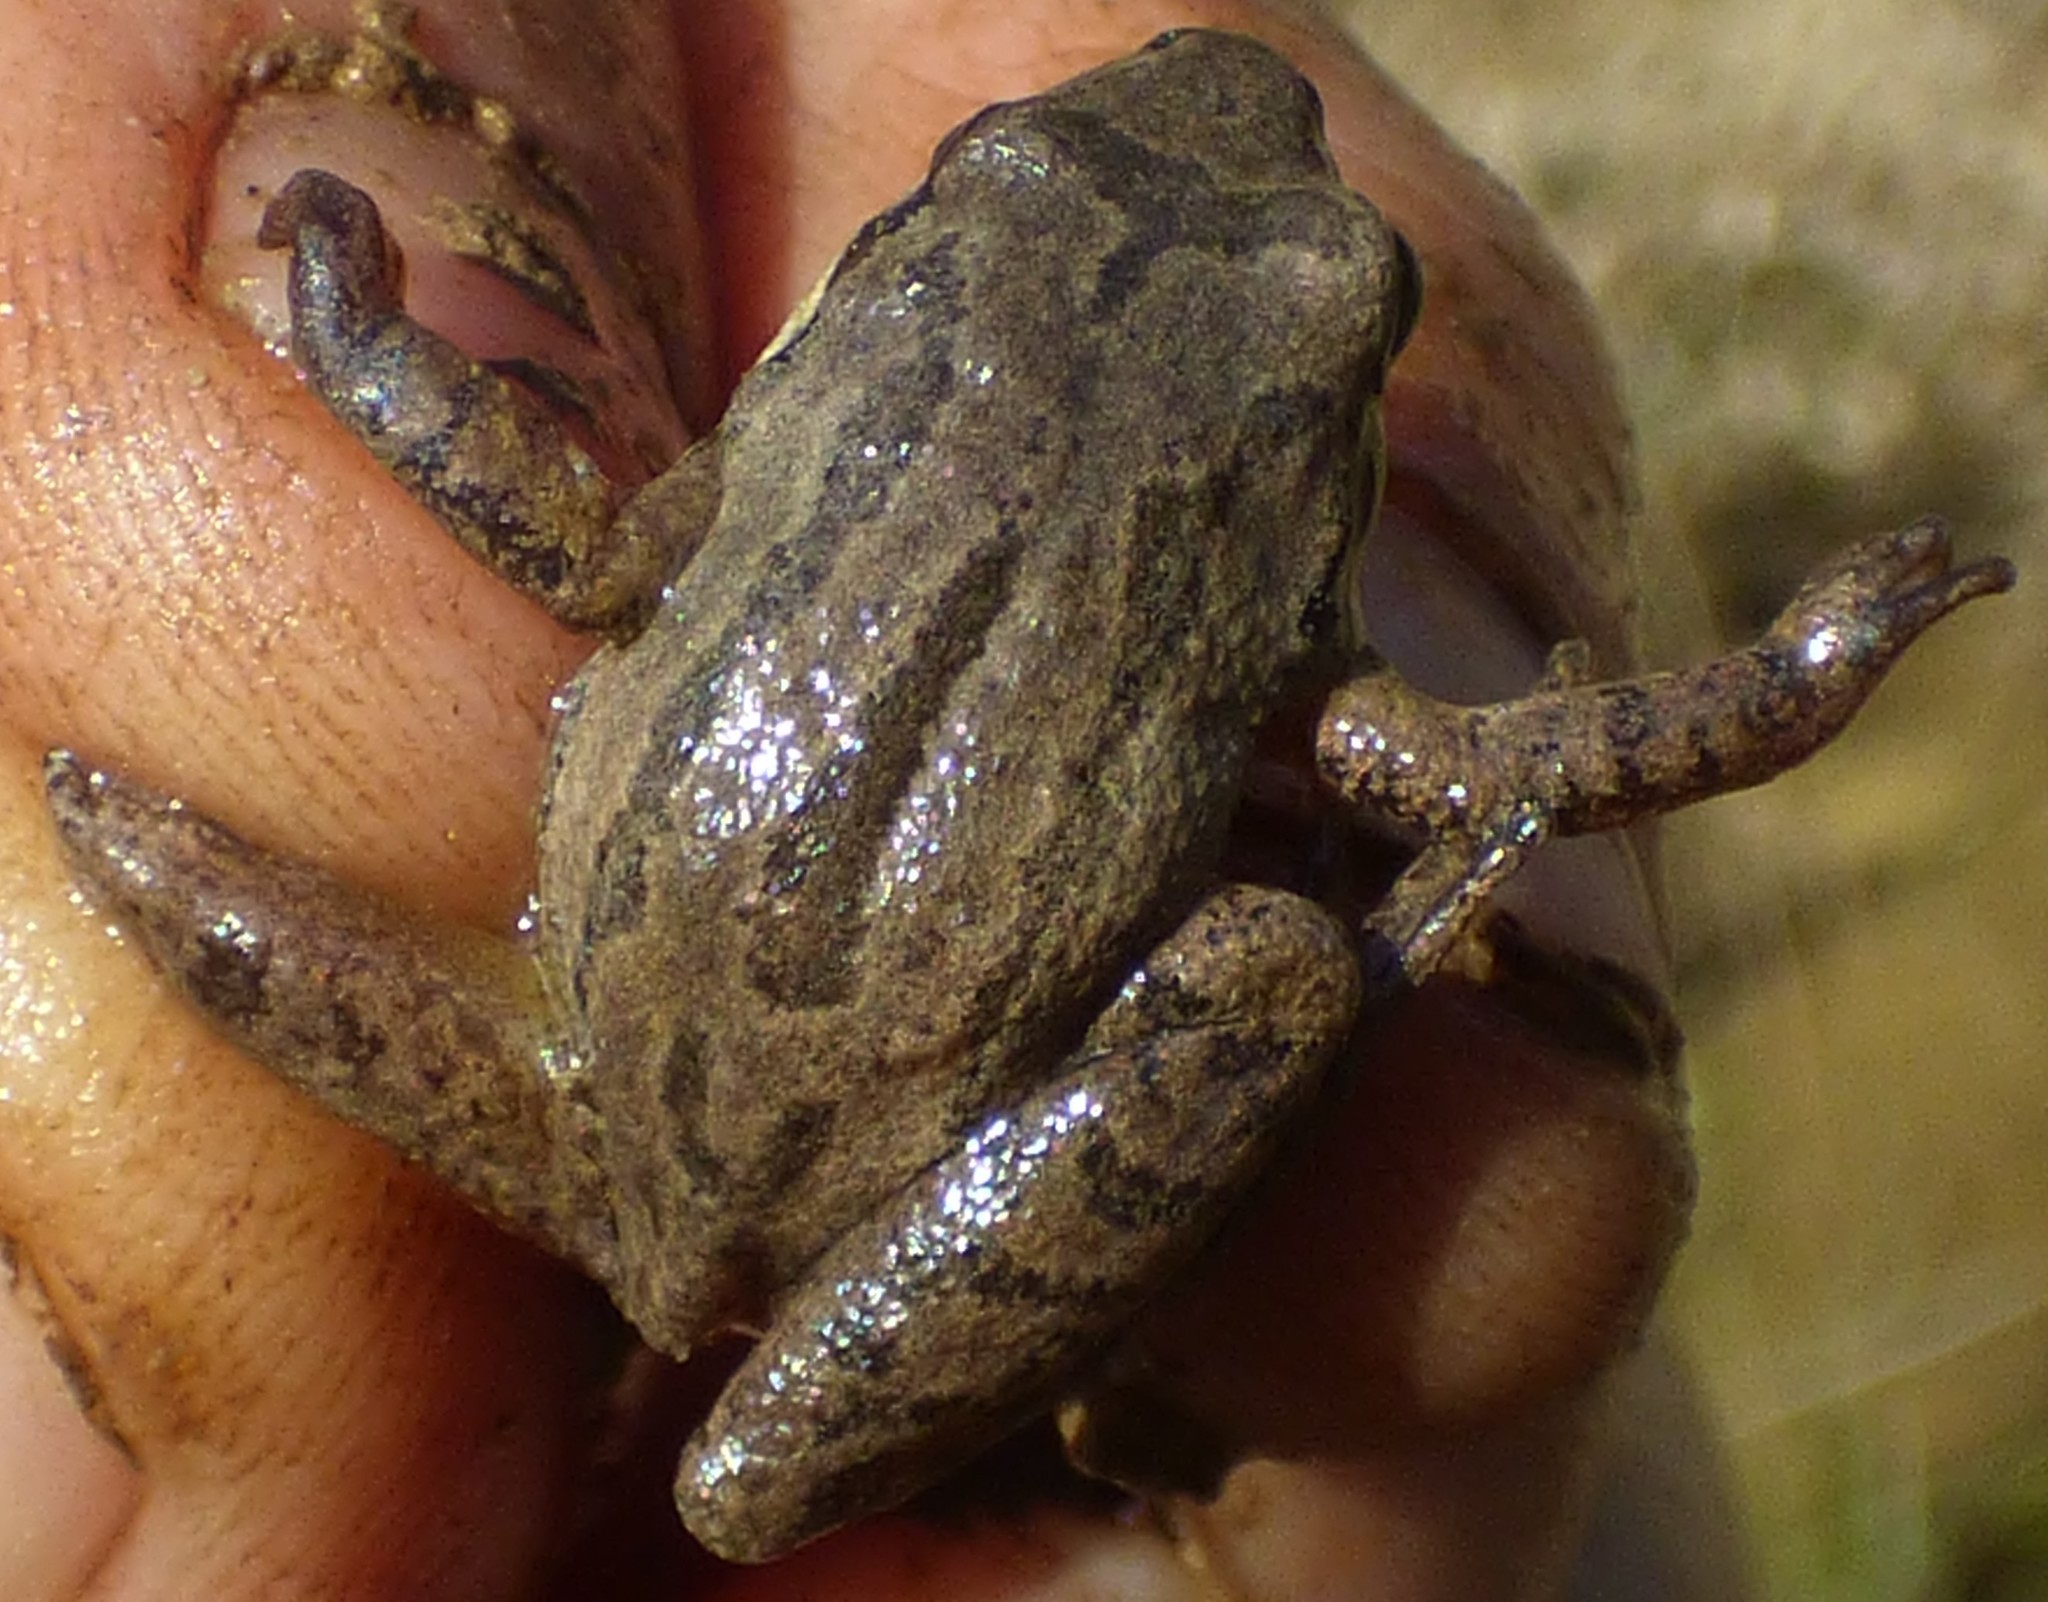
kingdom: Animalia
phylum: Chordata
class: Amphibia
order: Anura
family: Hylidae
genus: Pseudacris
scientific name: Pseudacris feriarum
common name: Upland chorus frog
